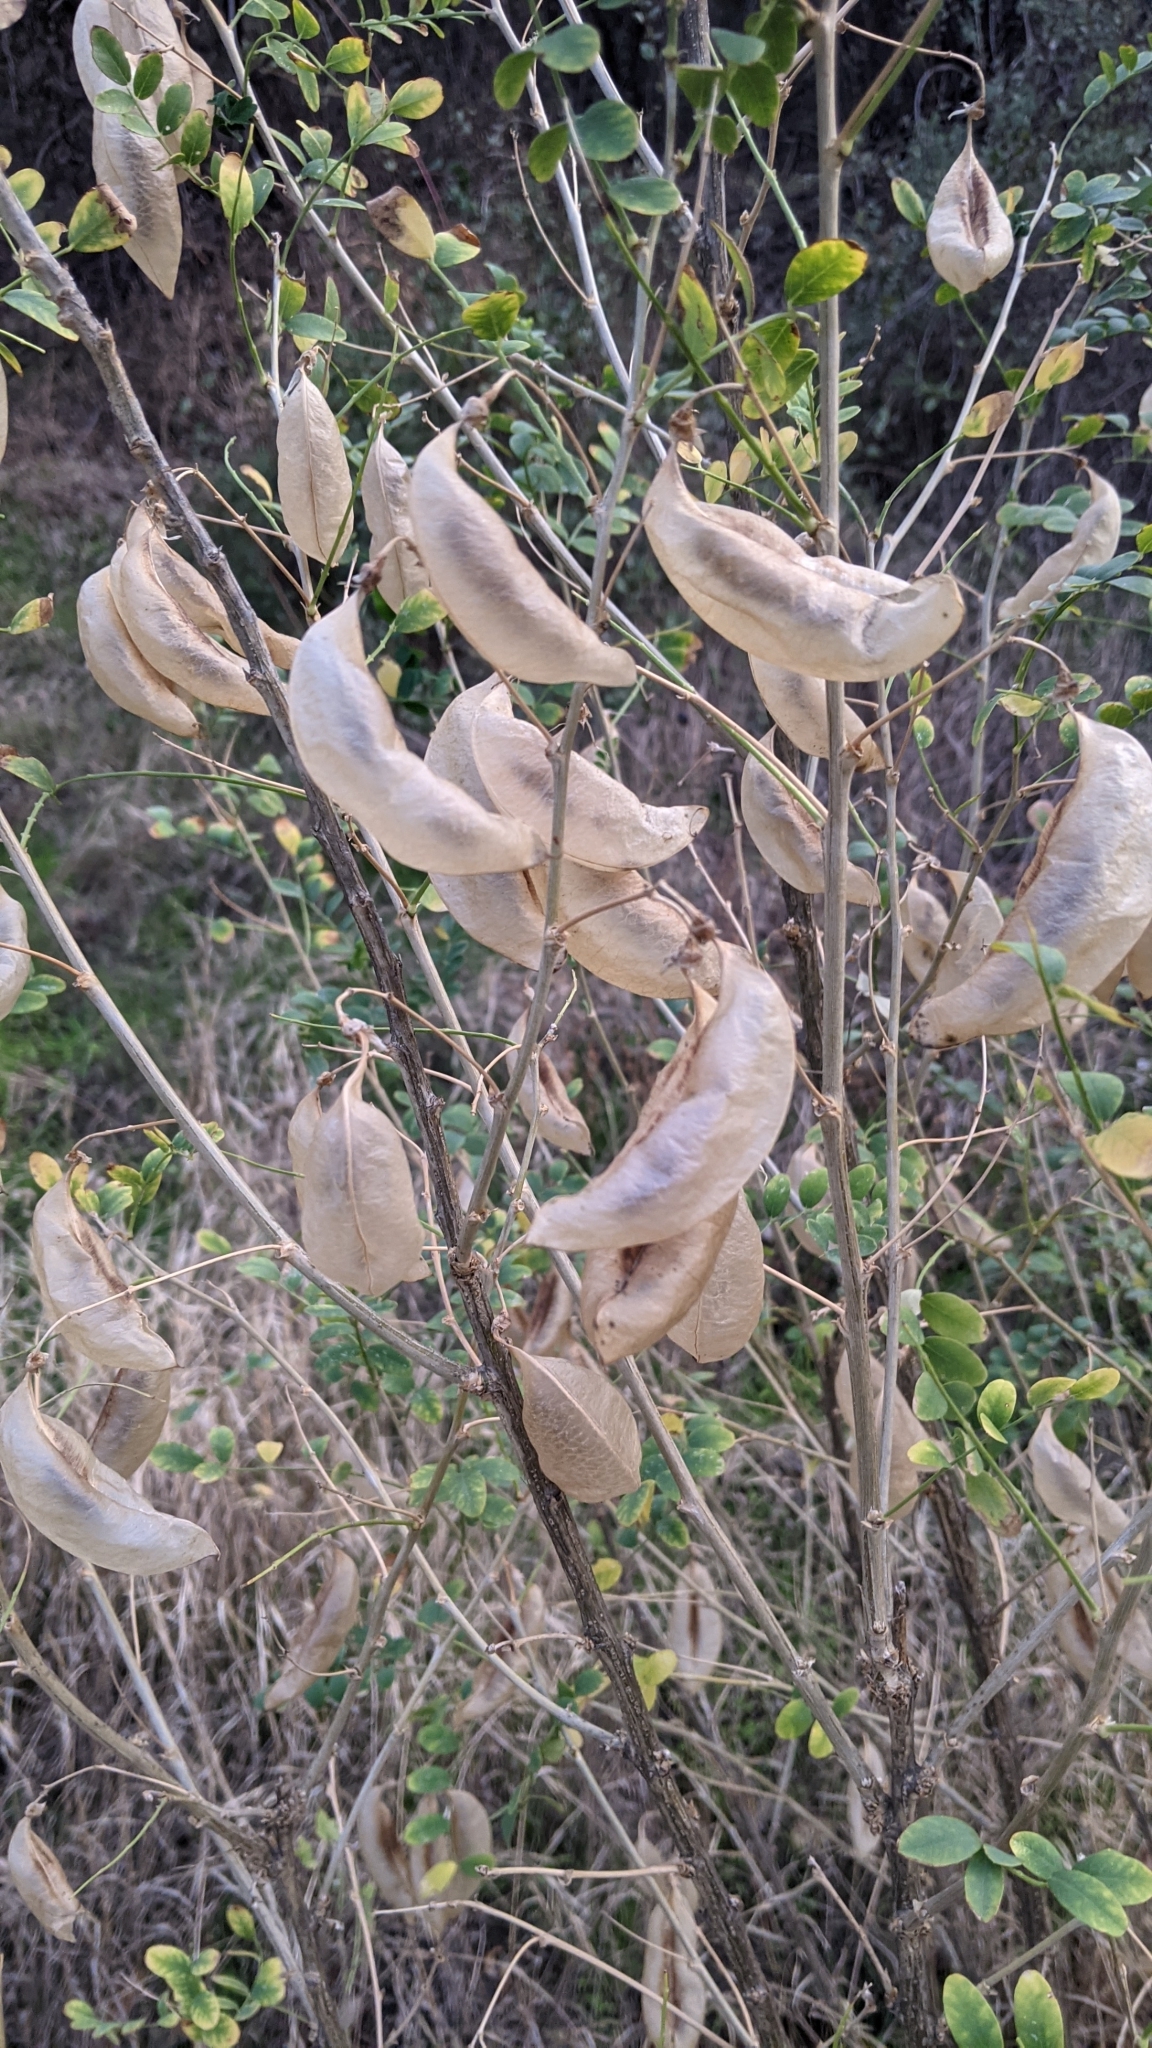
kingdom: Plantae
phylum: Tracheophyta
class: Magnoliopsida
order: Fabales
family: Fabaceae
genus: Colutea
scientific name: Colutea arborescens
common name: Bladder-senna
